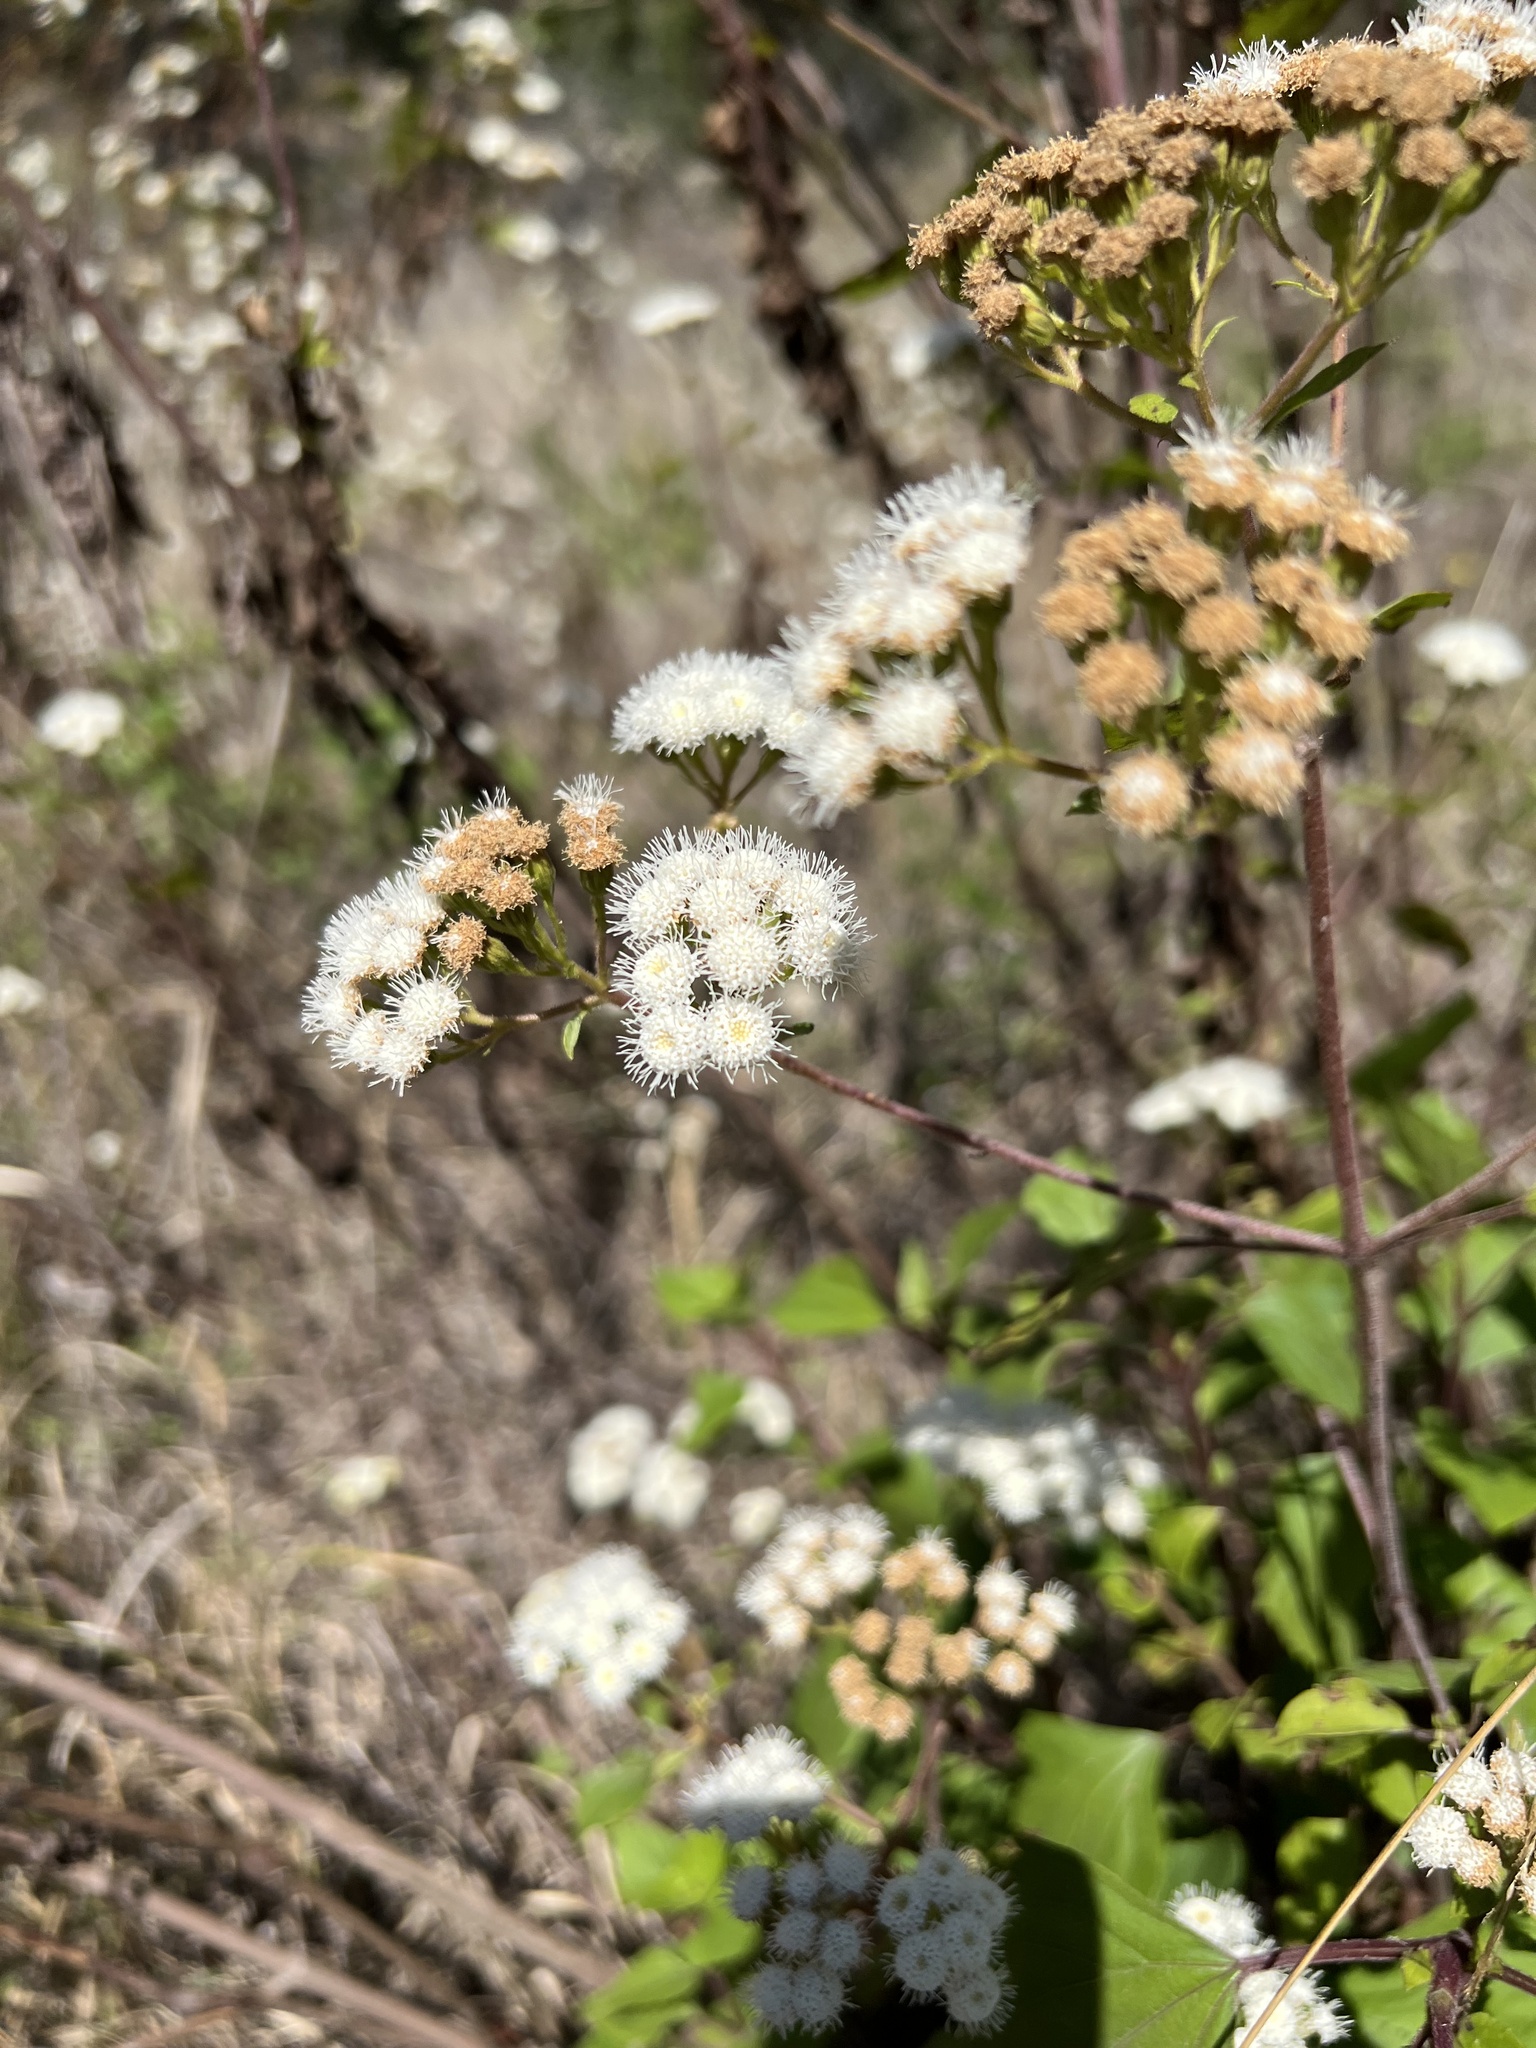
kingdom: Plantae
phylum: Tracheophyta
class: Magnoliopsida
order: Asterales
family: Asteraceae
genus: Ageratina
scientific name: Ageratina adenophora
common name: Sticky snakeroot
